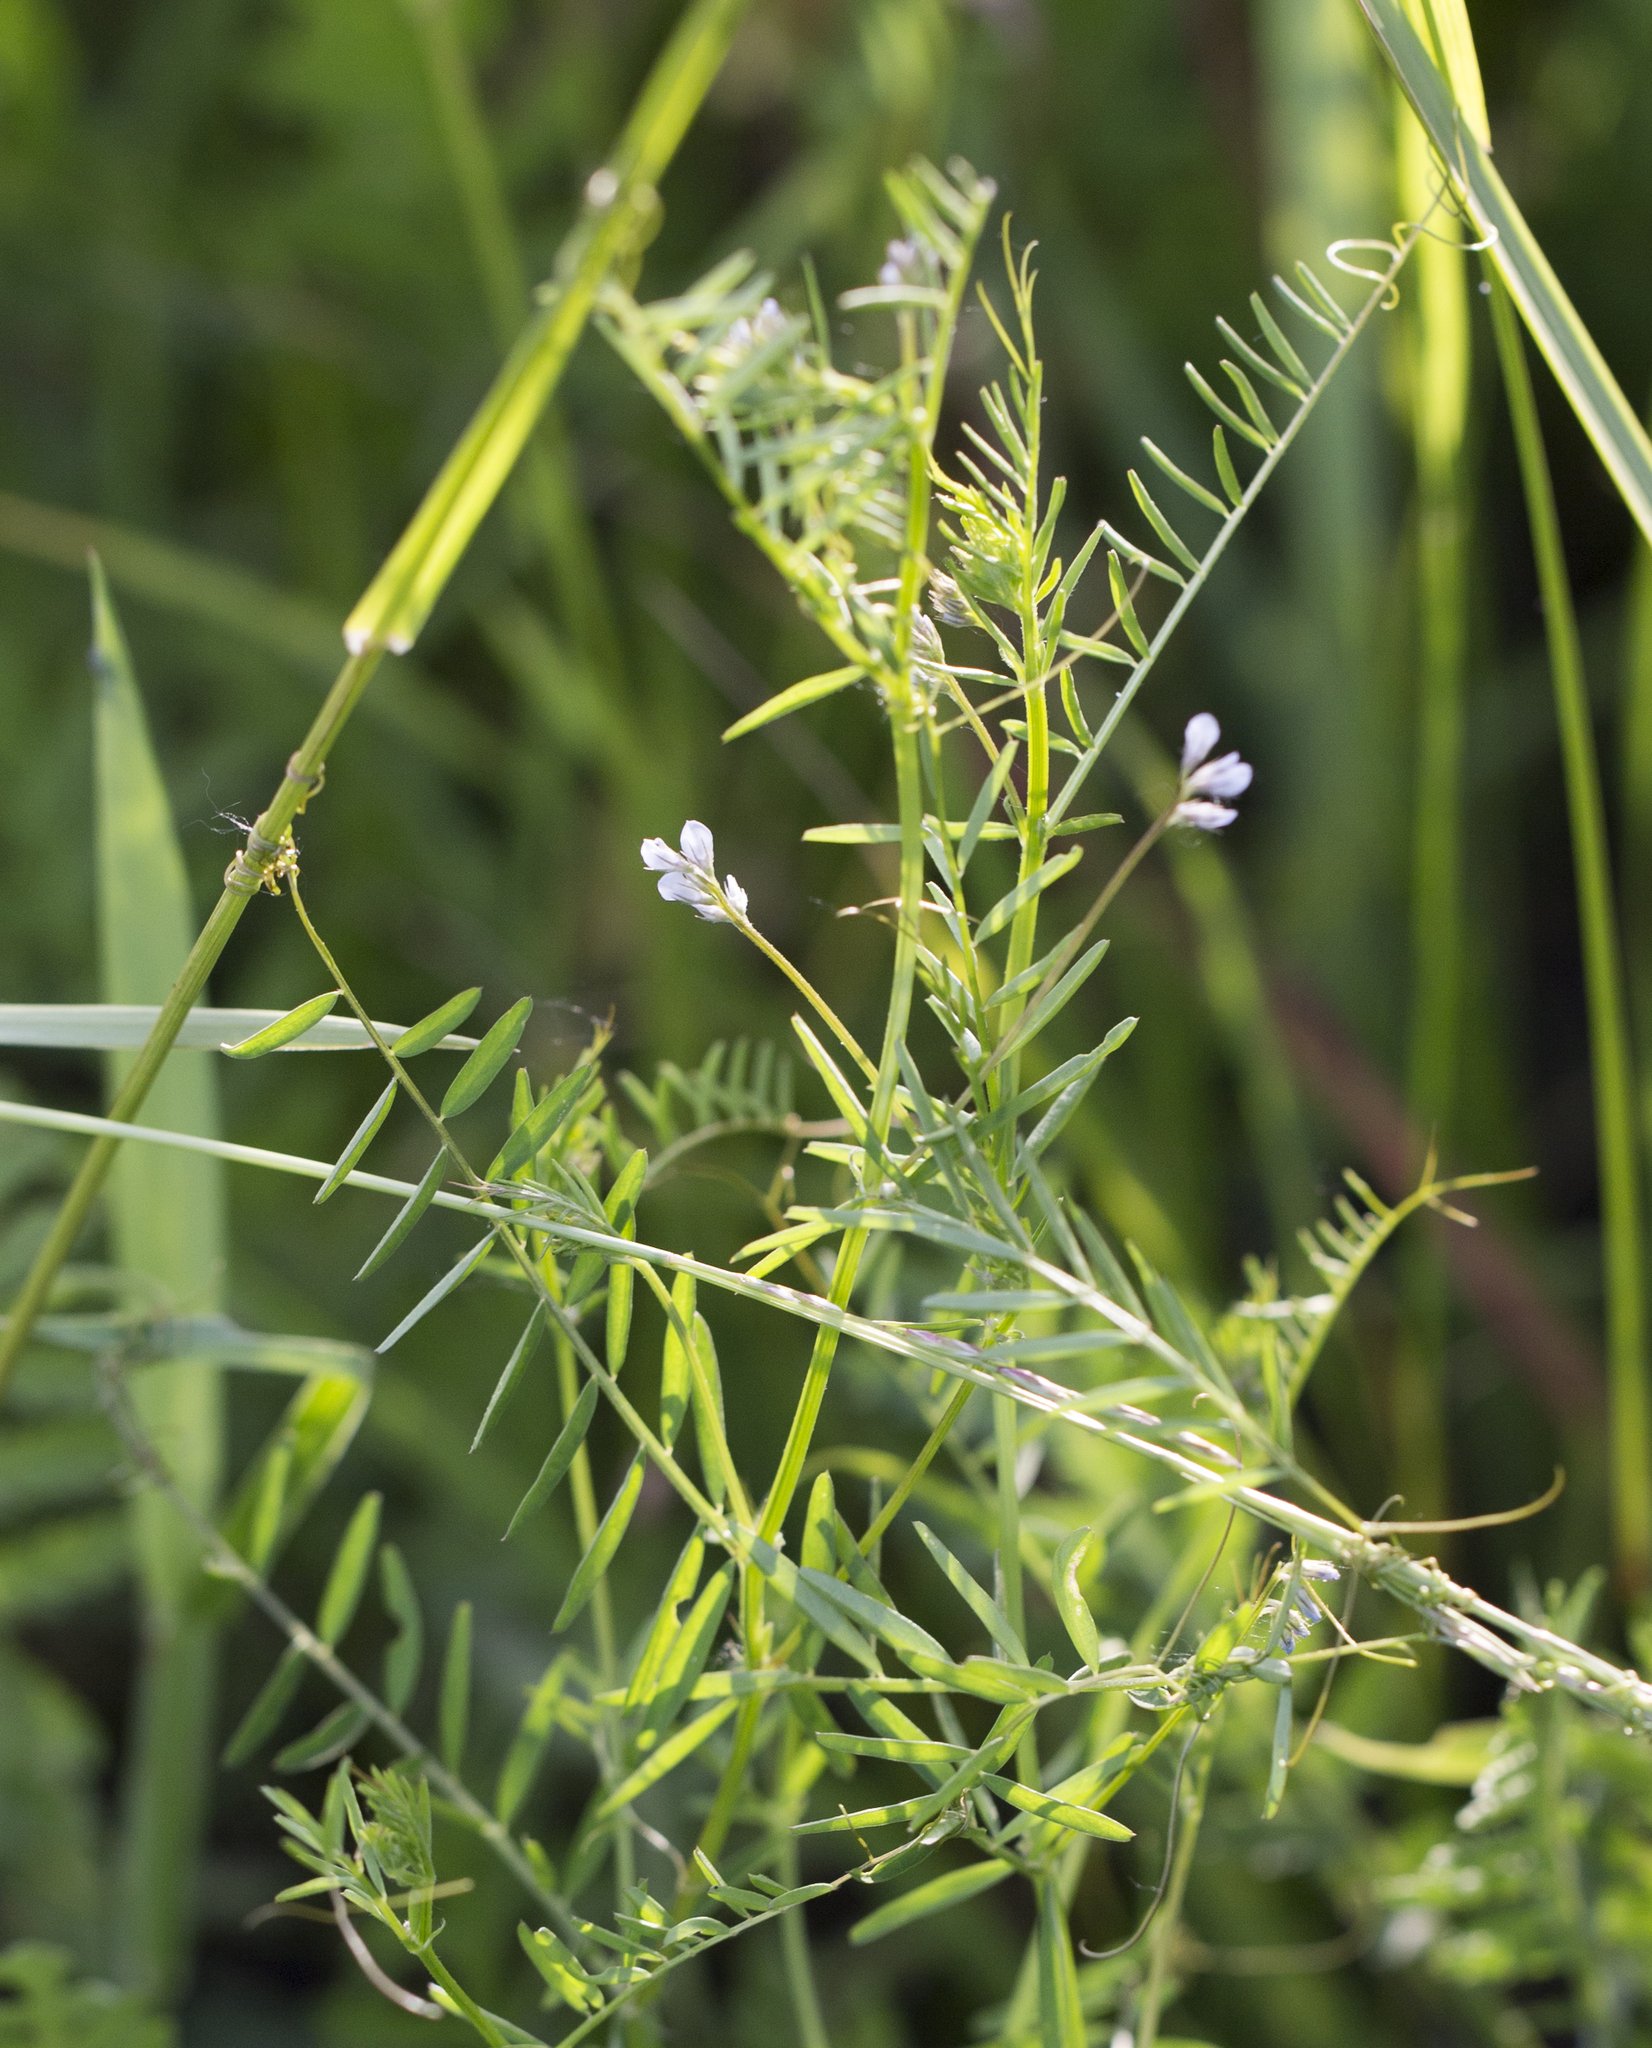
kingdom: Plantae
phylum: Tracheophyta
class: Magnoliopsida
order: Fabales
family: Fabaceae
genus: Vicia
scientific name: Vicia hirsuta
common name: Tiny vetch
